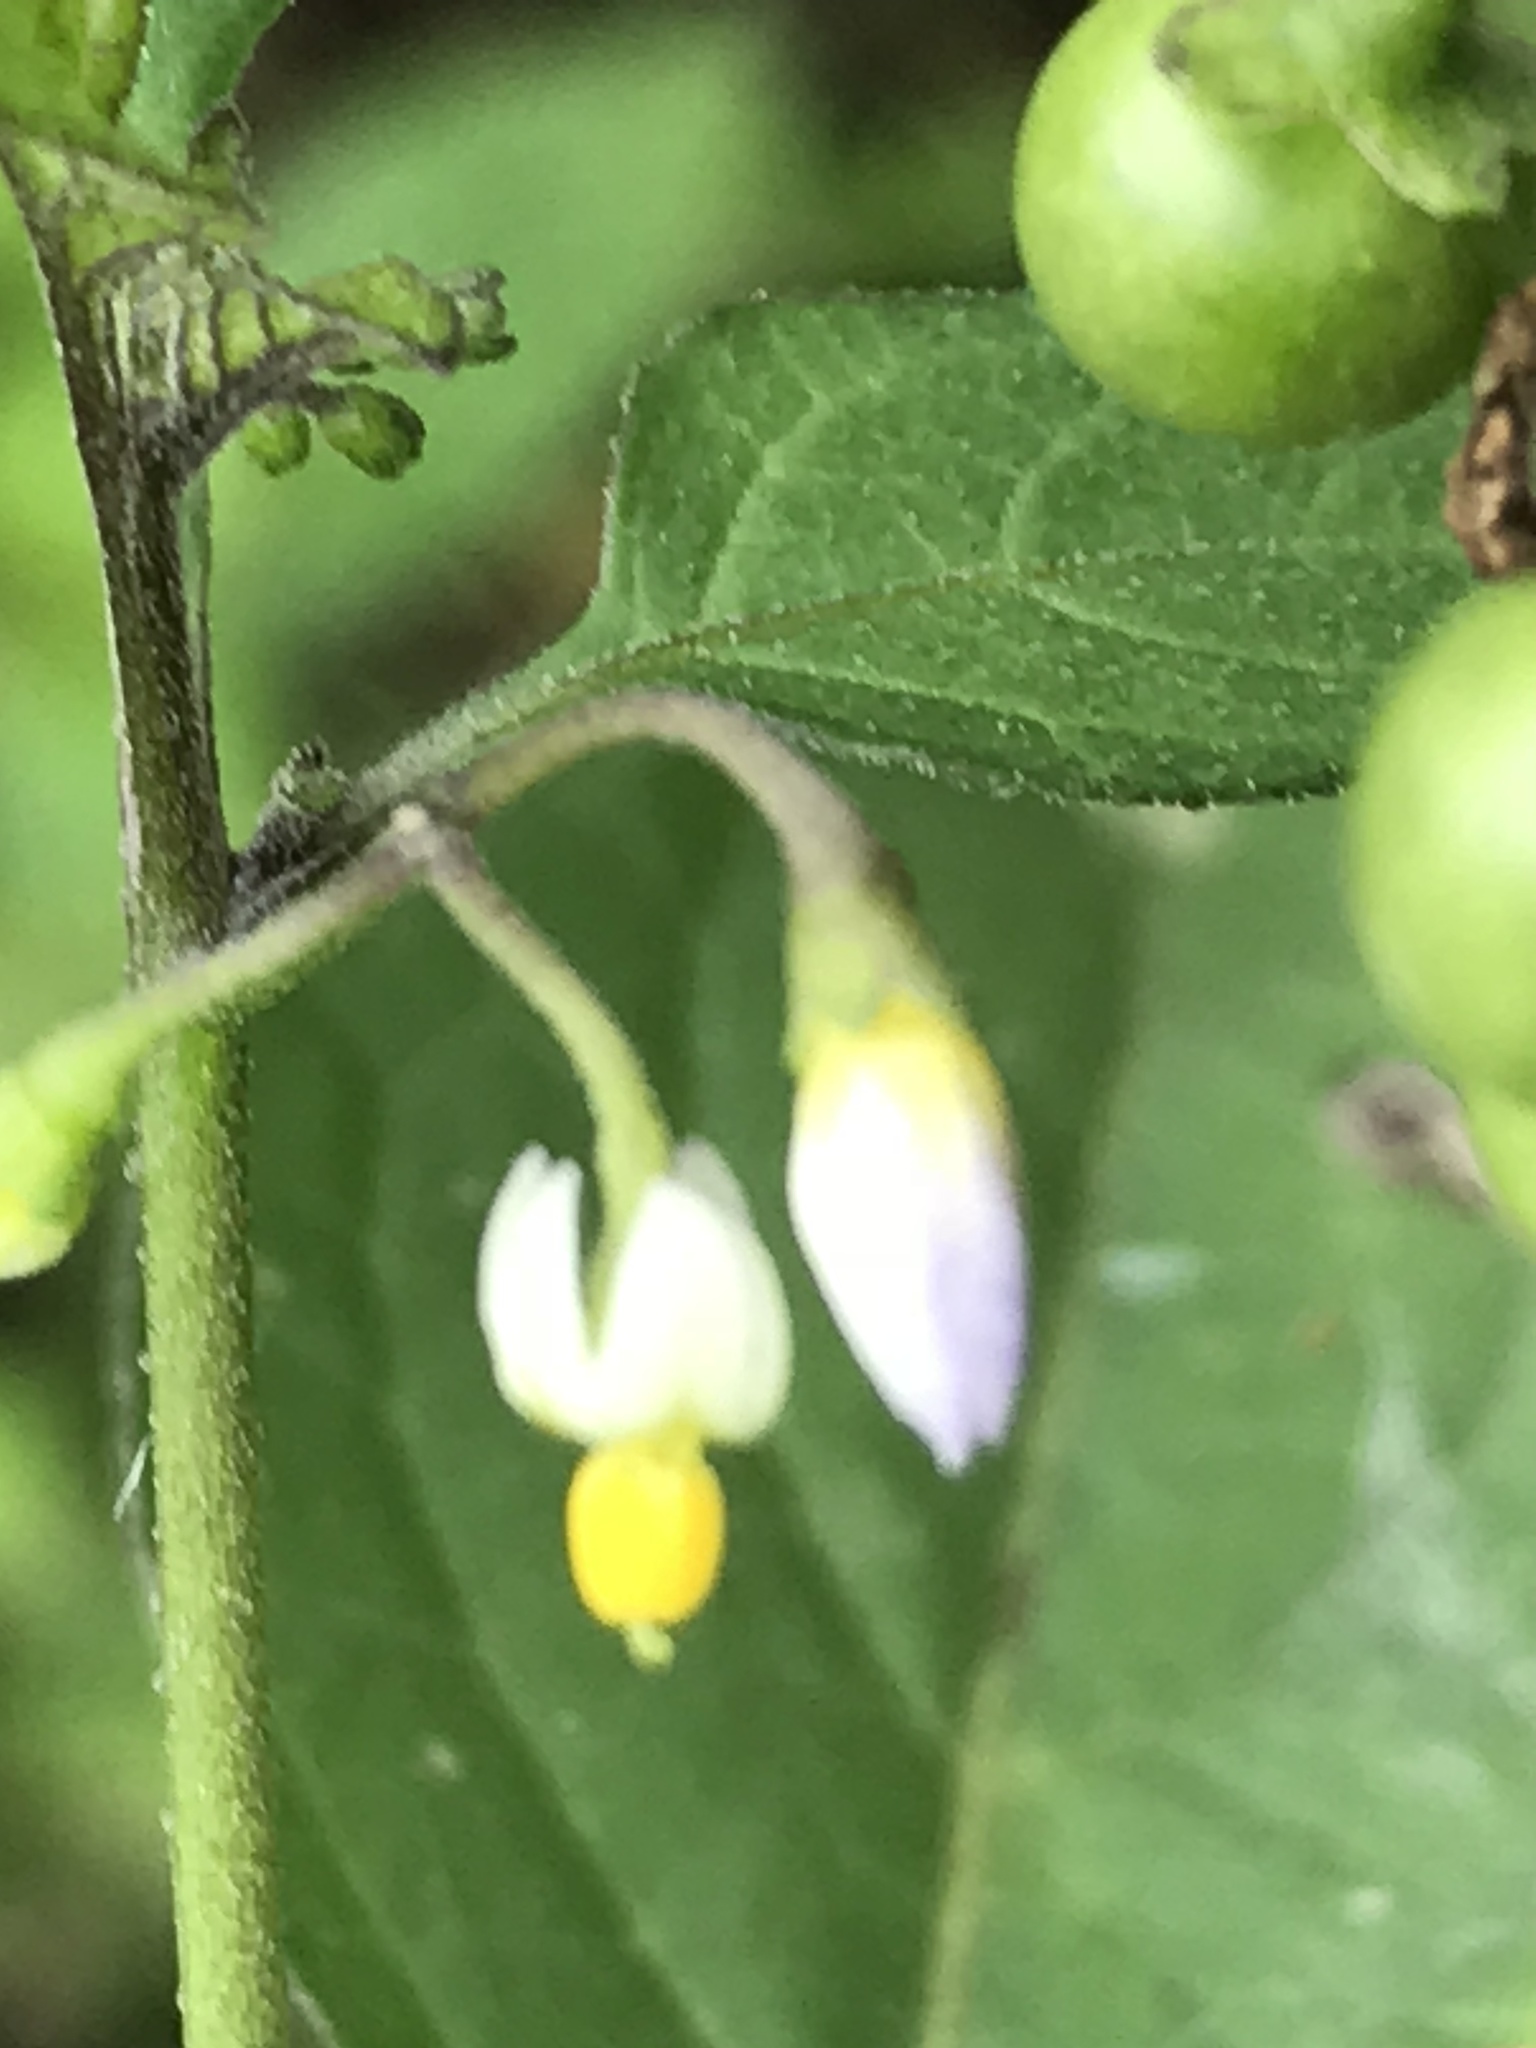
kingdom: Plantae
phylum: Tracheophyta
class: Magnoliopsida
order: Solanales
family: Solanaceae
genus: Solanum
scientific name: Solanum americanum
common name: American black nightshade
